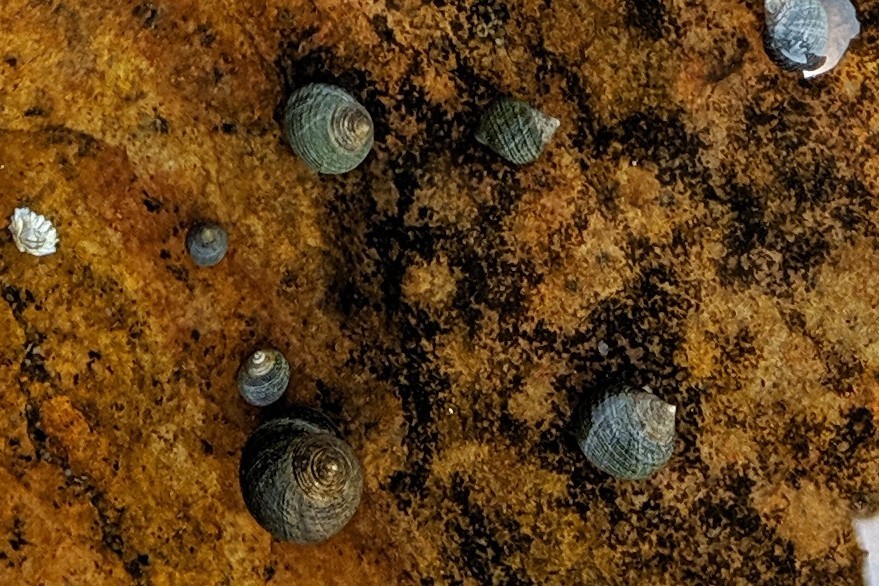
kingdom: Animalia
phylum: Mollusca
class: Gastropoda
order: Littorinimorpha
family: Littorinidae
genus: Littorina
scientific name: Littorina littorea
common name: Common periwinkle
